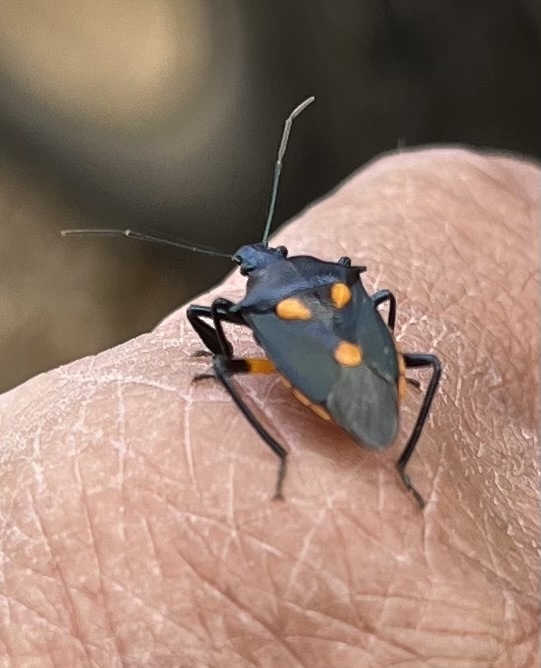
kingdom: Animalia
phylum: Arthropoda
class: Insecta
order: Hemiptera
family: Pentatomidae
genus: Euthyrhynchus
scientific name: Euthyrhynchus floridanus
